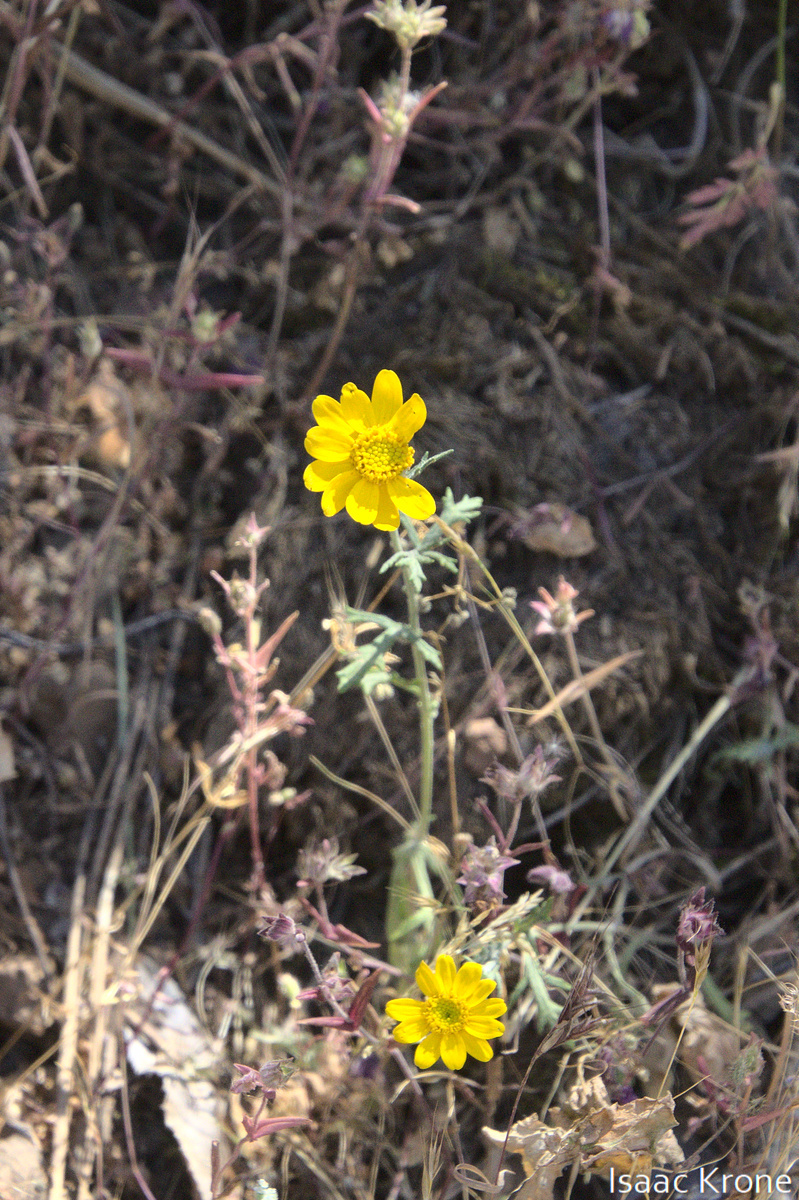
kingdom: Plantae
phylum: Tracheophyta
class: Magnoliopsida
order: Asterales
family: Asteraceae
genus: Eriophyllum
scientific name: Eriophyllum lanatum
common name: Common woolly-sunflower
